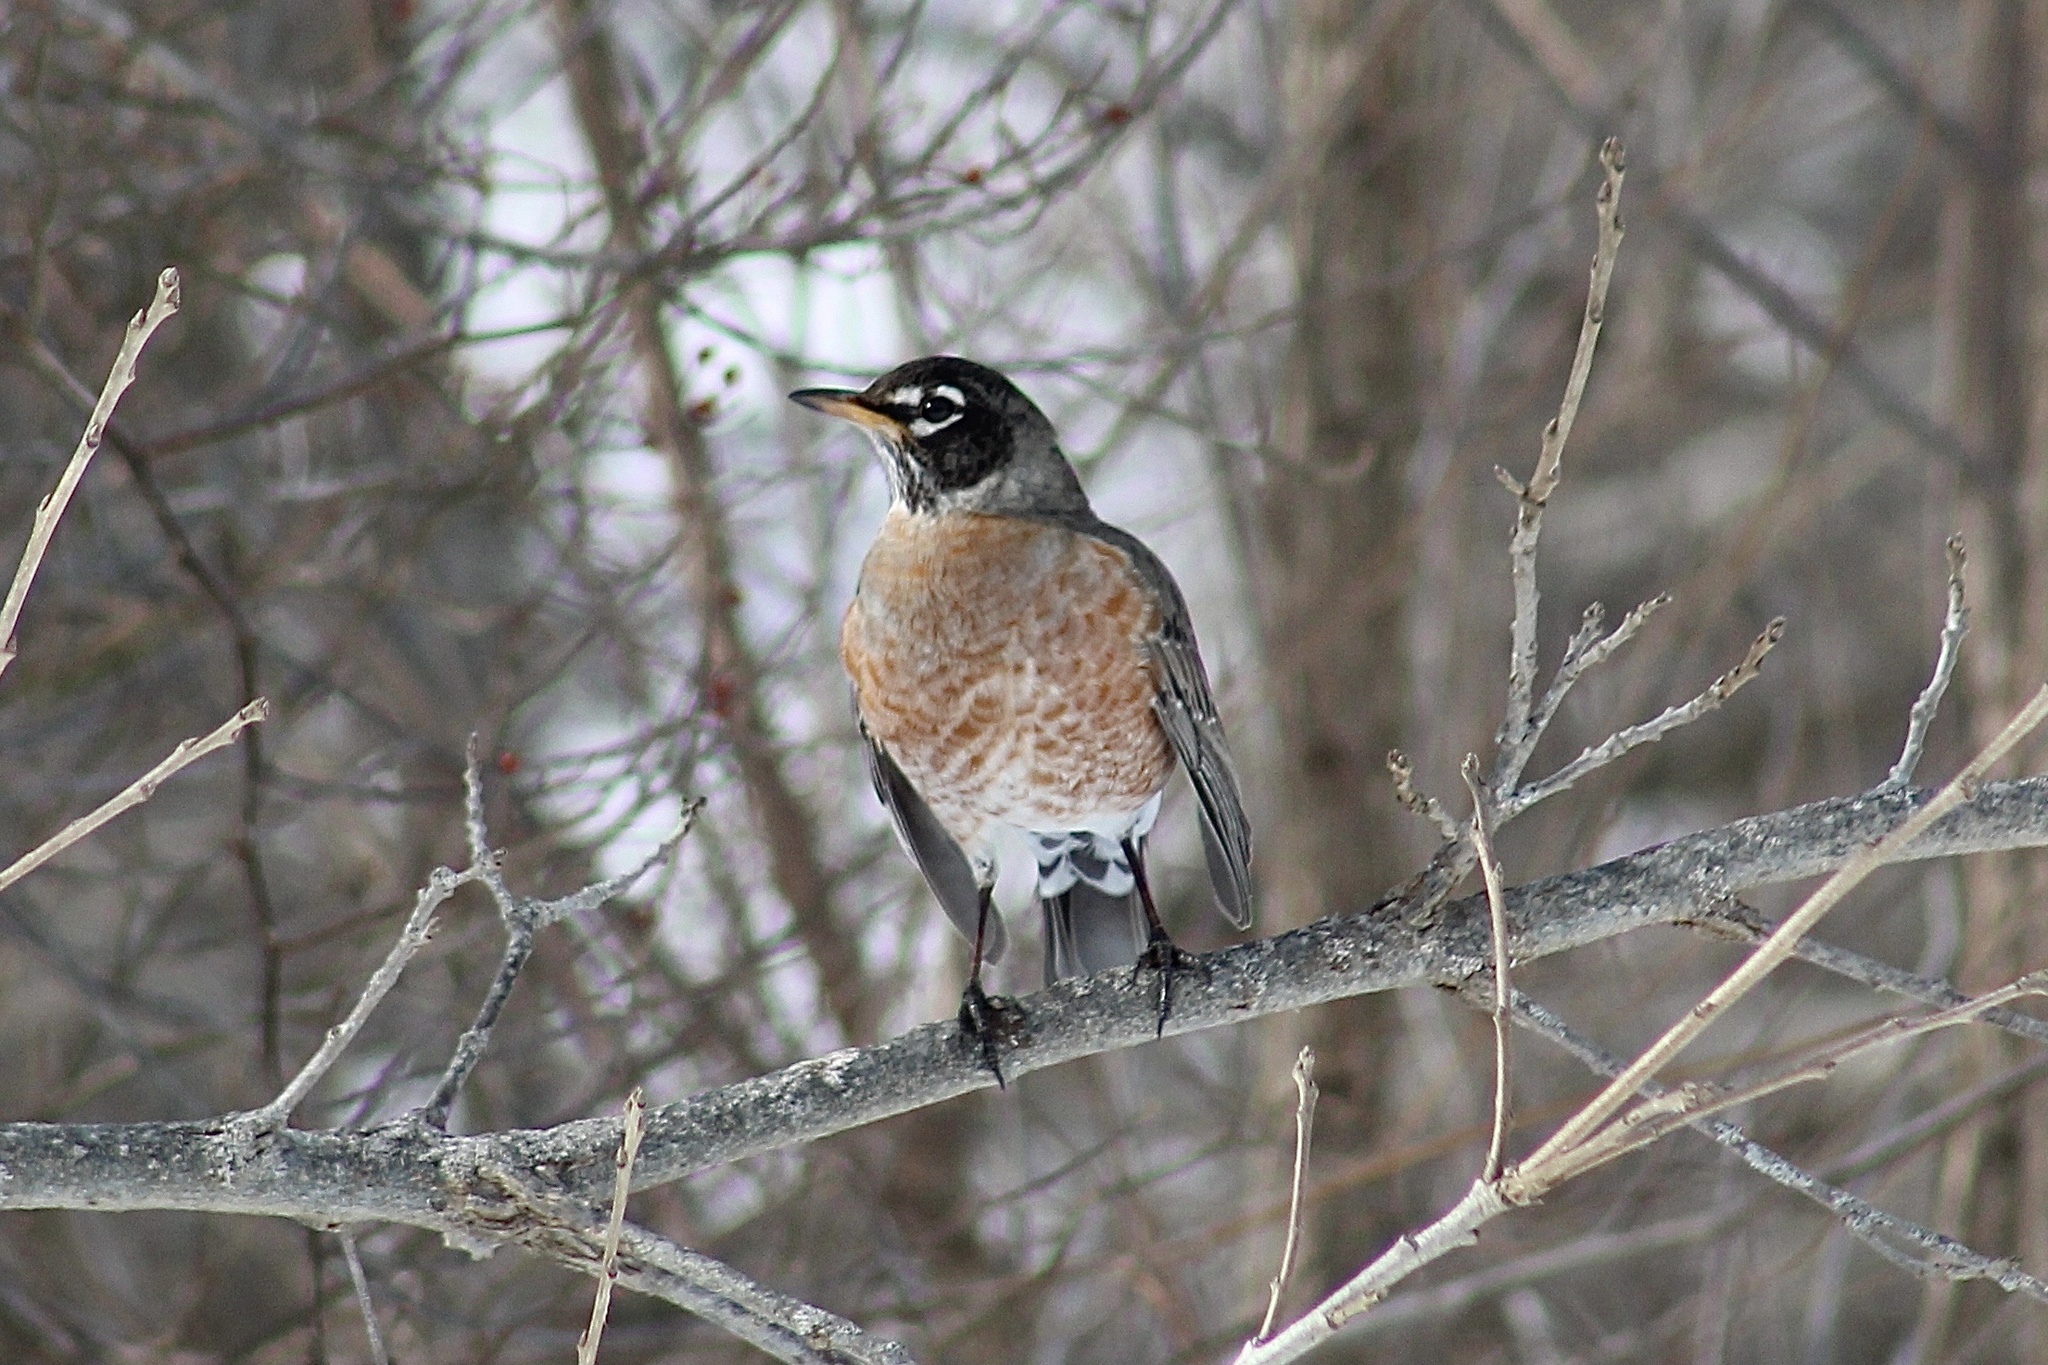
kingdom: Animalia
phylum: Chordata
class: Aves
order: Passeriformes
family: Turdidae
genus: Turdus
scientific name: Turdus migratorius
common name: American robin
